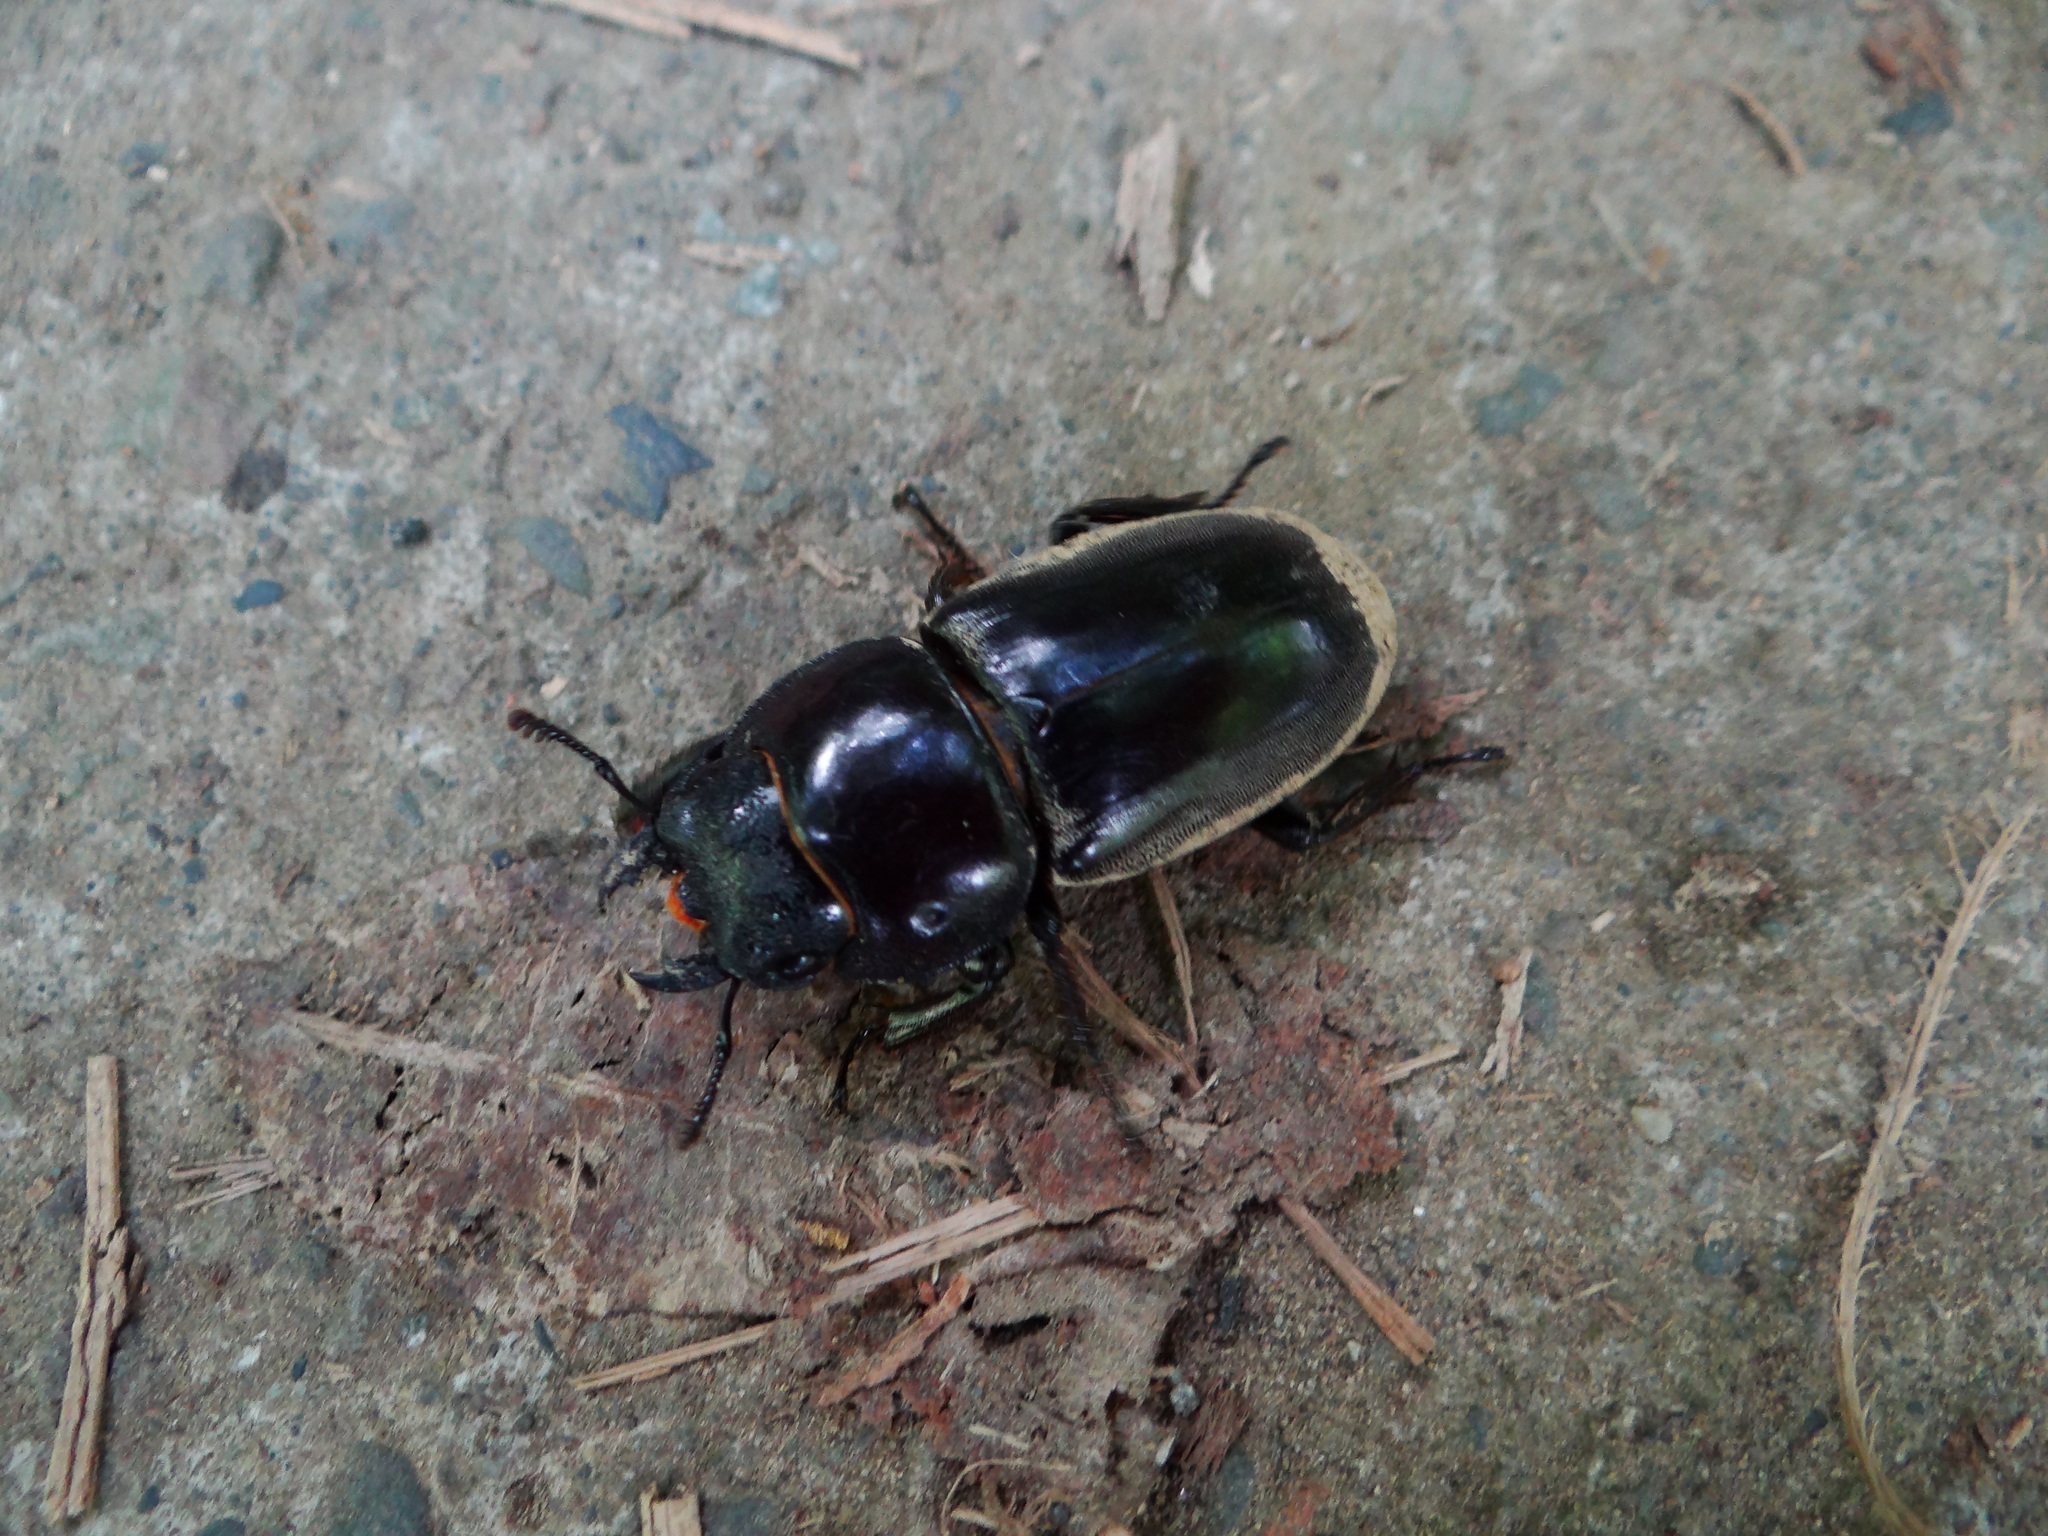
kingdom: Animalia
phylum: Arthropoda
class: Insecta
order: Coleoptera
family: Lucanidae
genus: Serrognathus
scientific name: Serrognathus titanus
